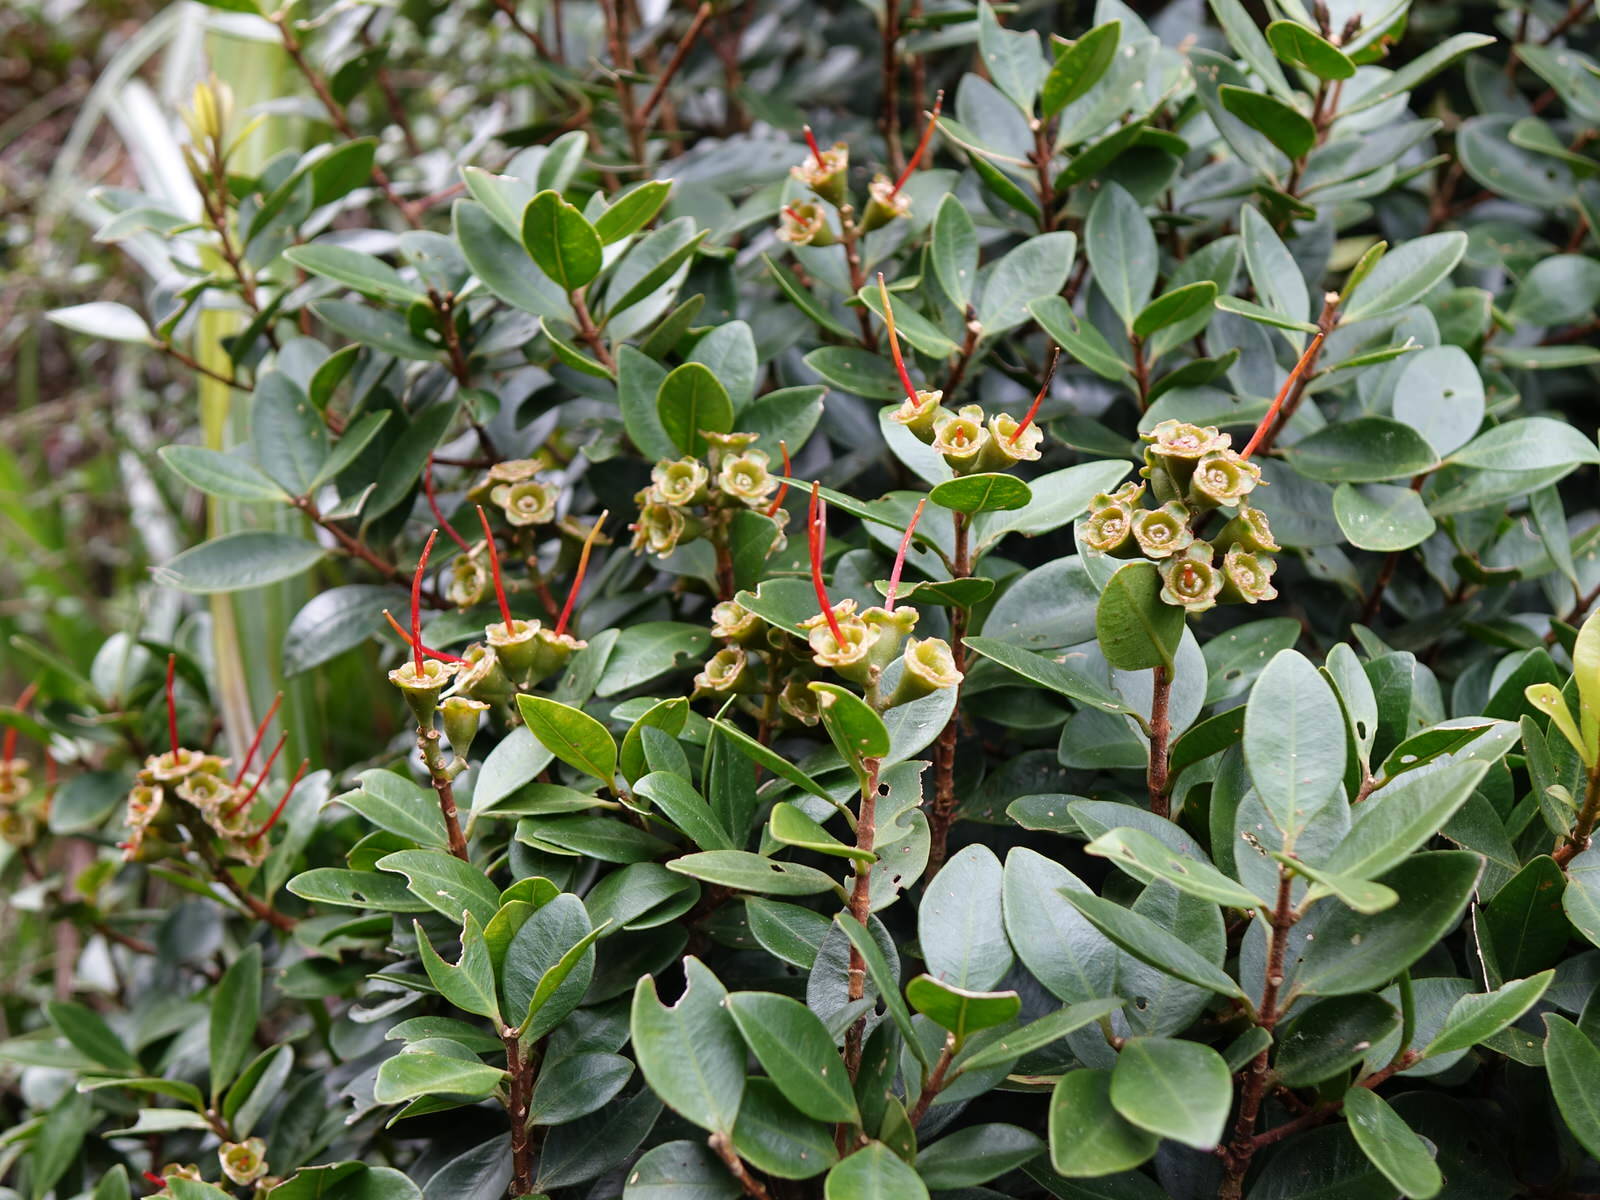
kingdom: Plantae
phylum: Tracheophyta
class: Magnoliopsida
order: Myrtales
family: Myrtaceae
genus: Metrosideros
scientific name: Metrosideros fulgens
